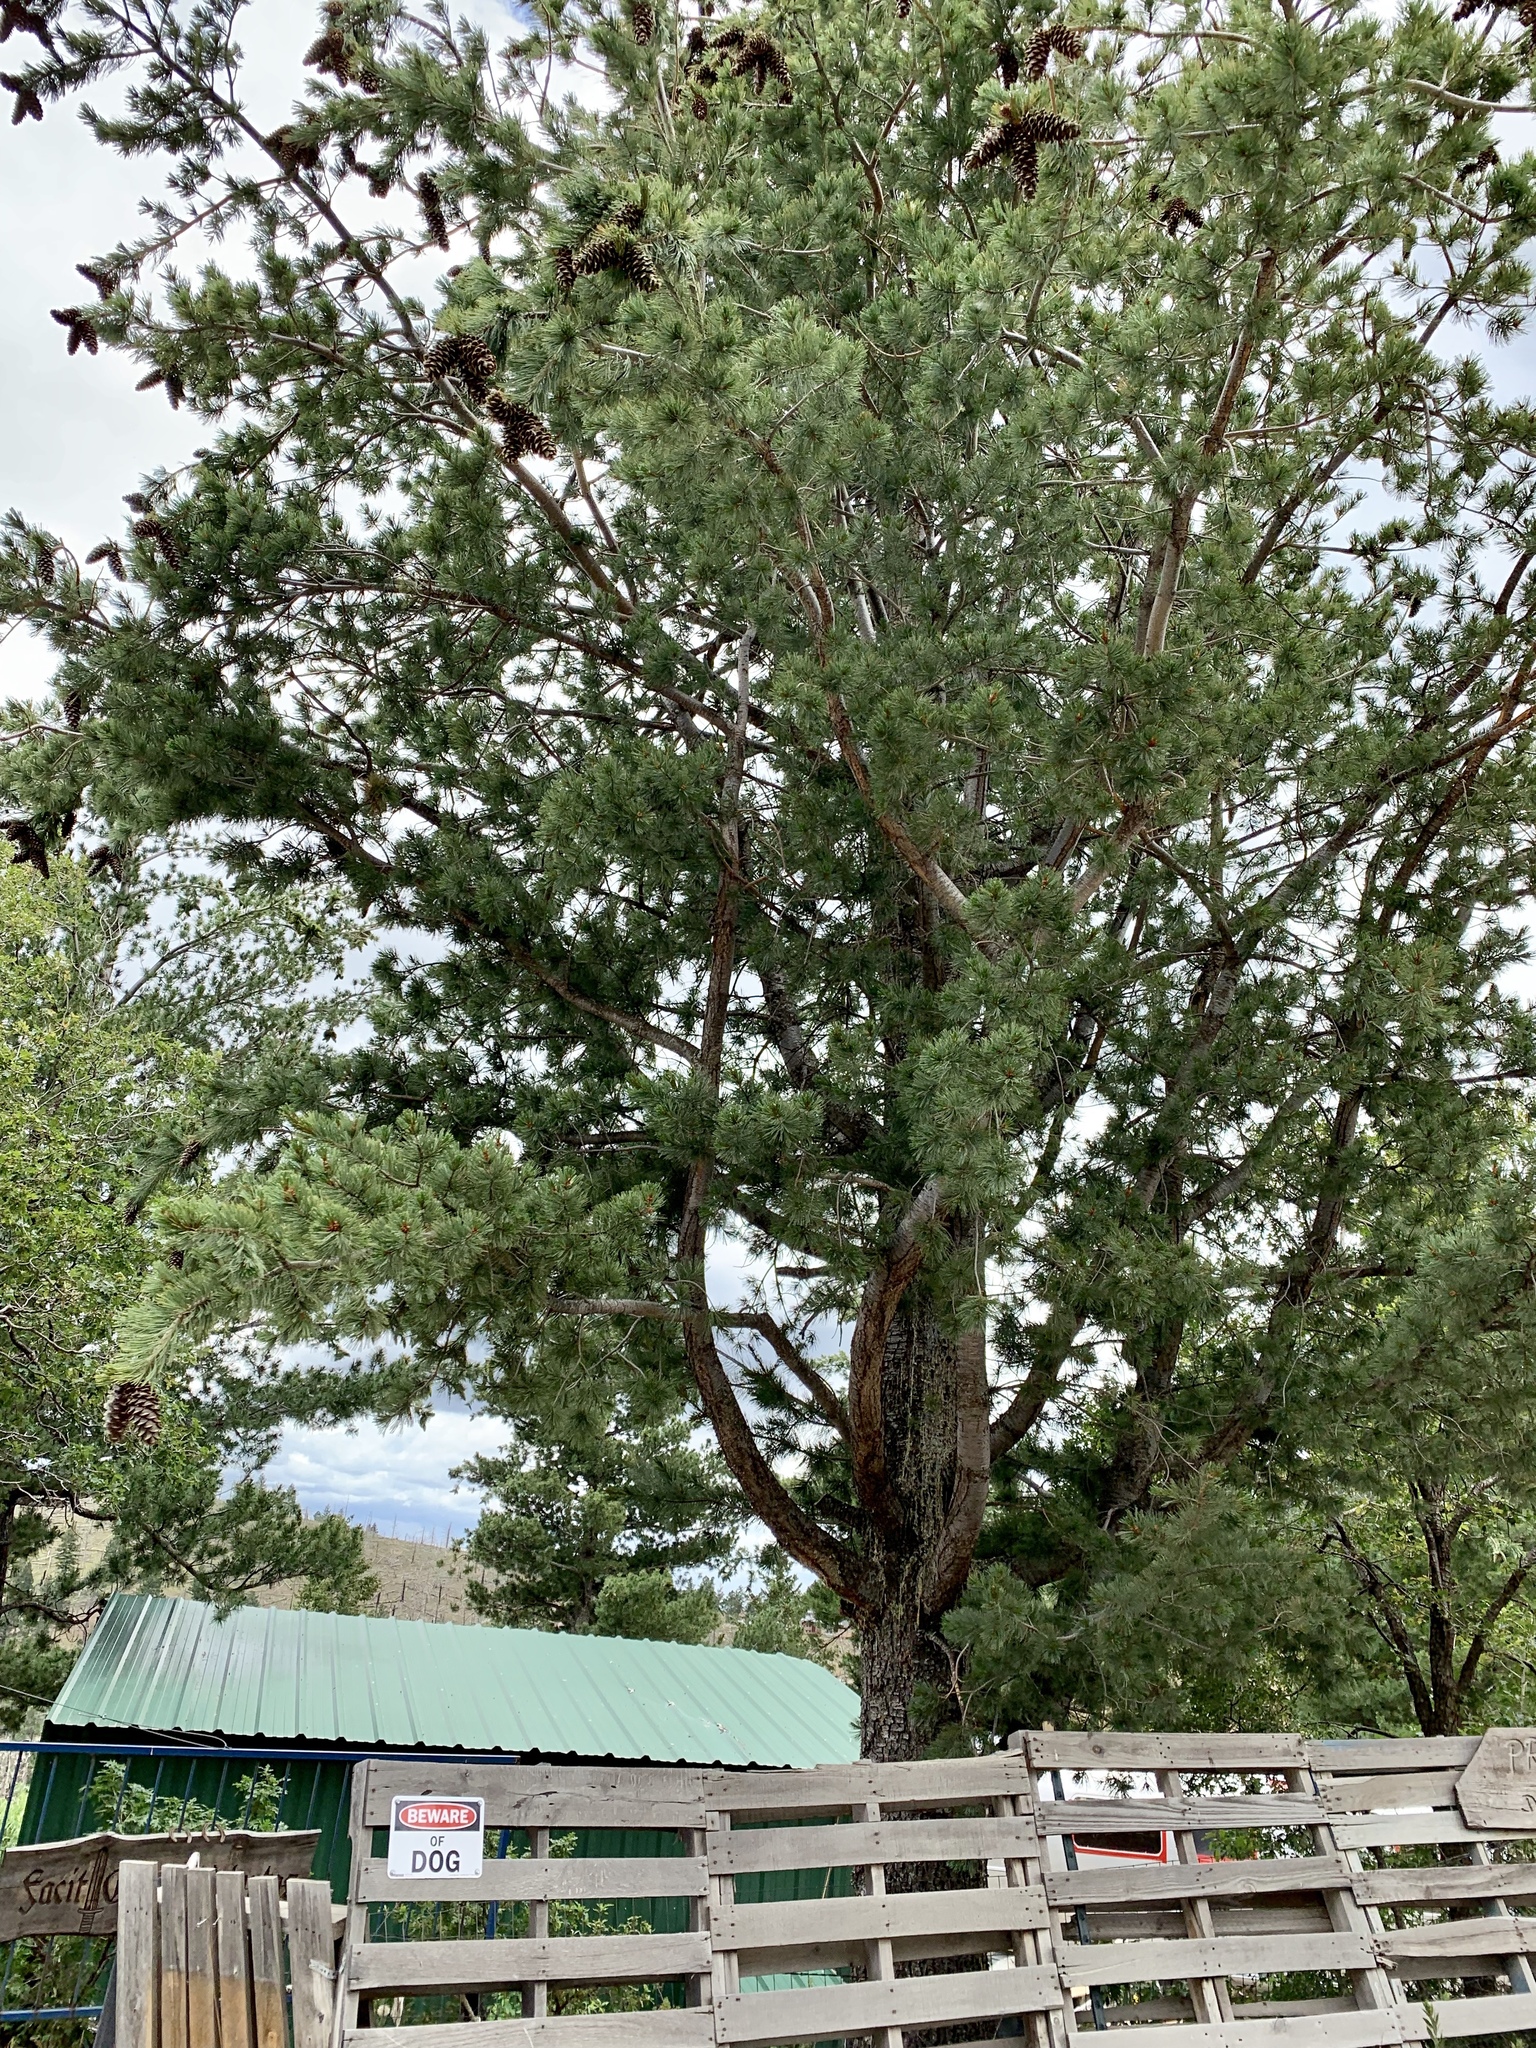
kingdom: Plantae
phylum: Tracheophyta
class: Pinopsida
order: Pinales
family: Pinaceae
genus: Pinus
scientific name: Pinus strobiformis
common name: Southwestern white pine
